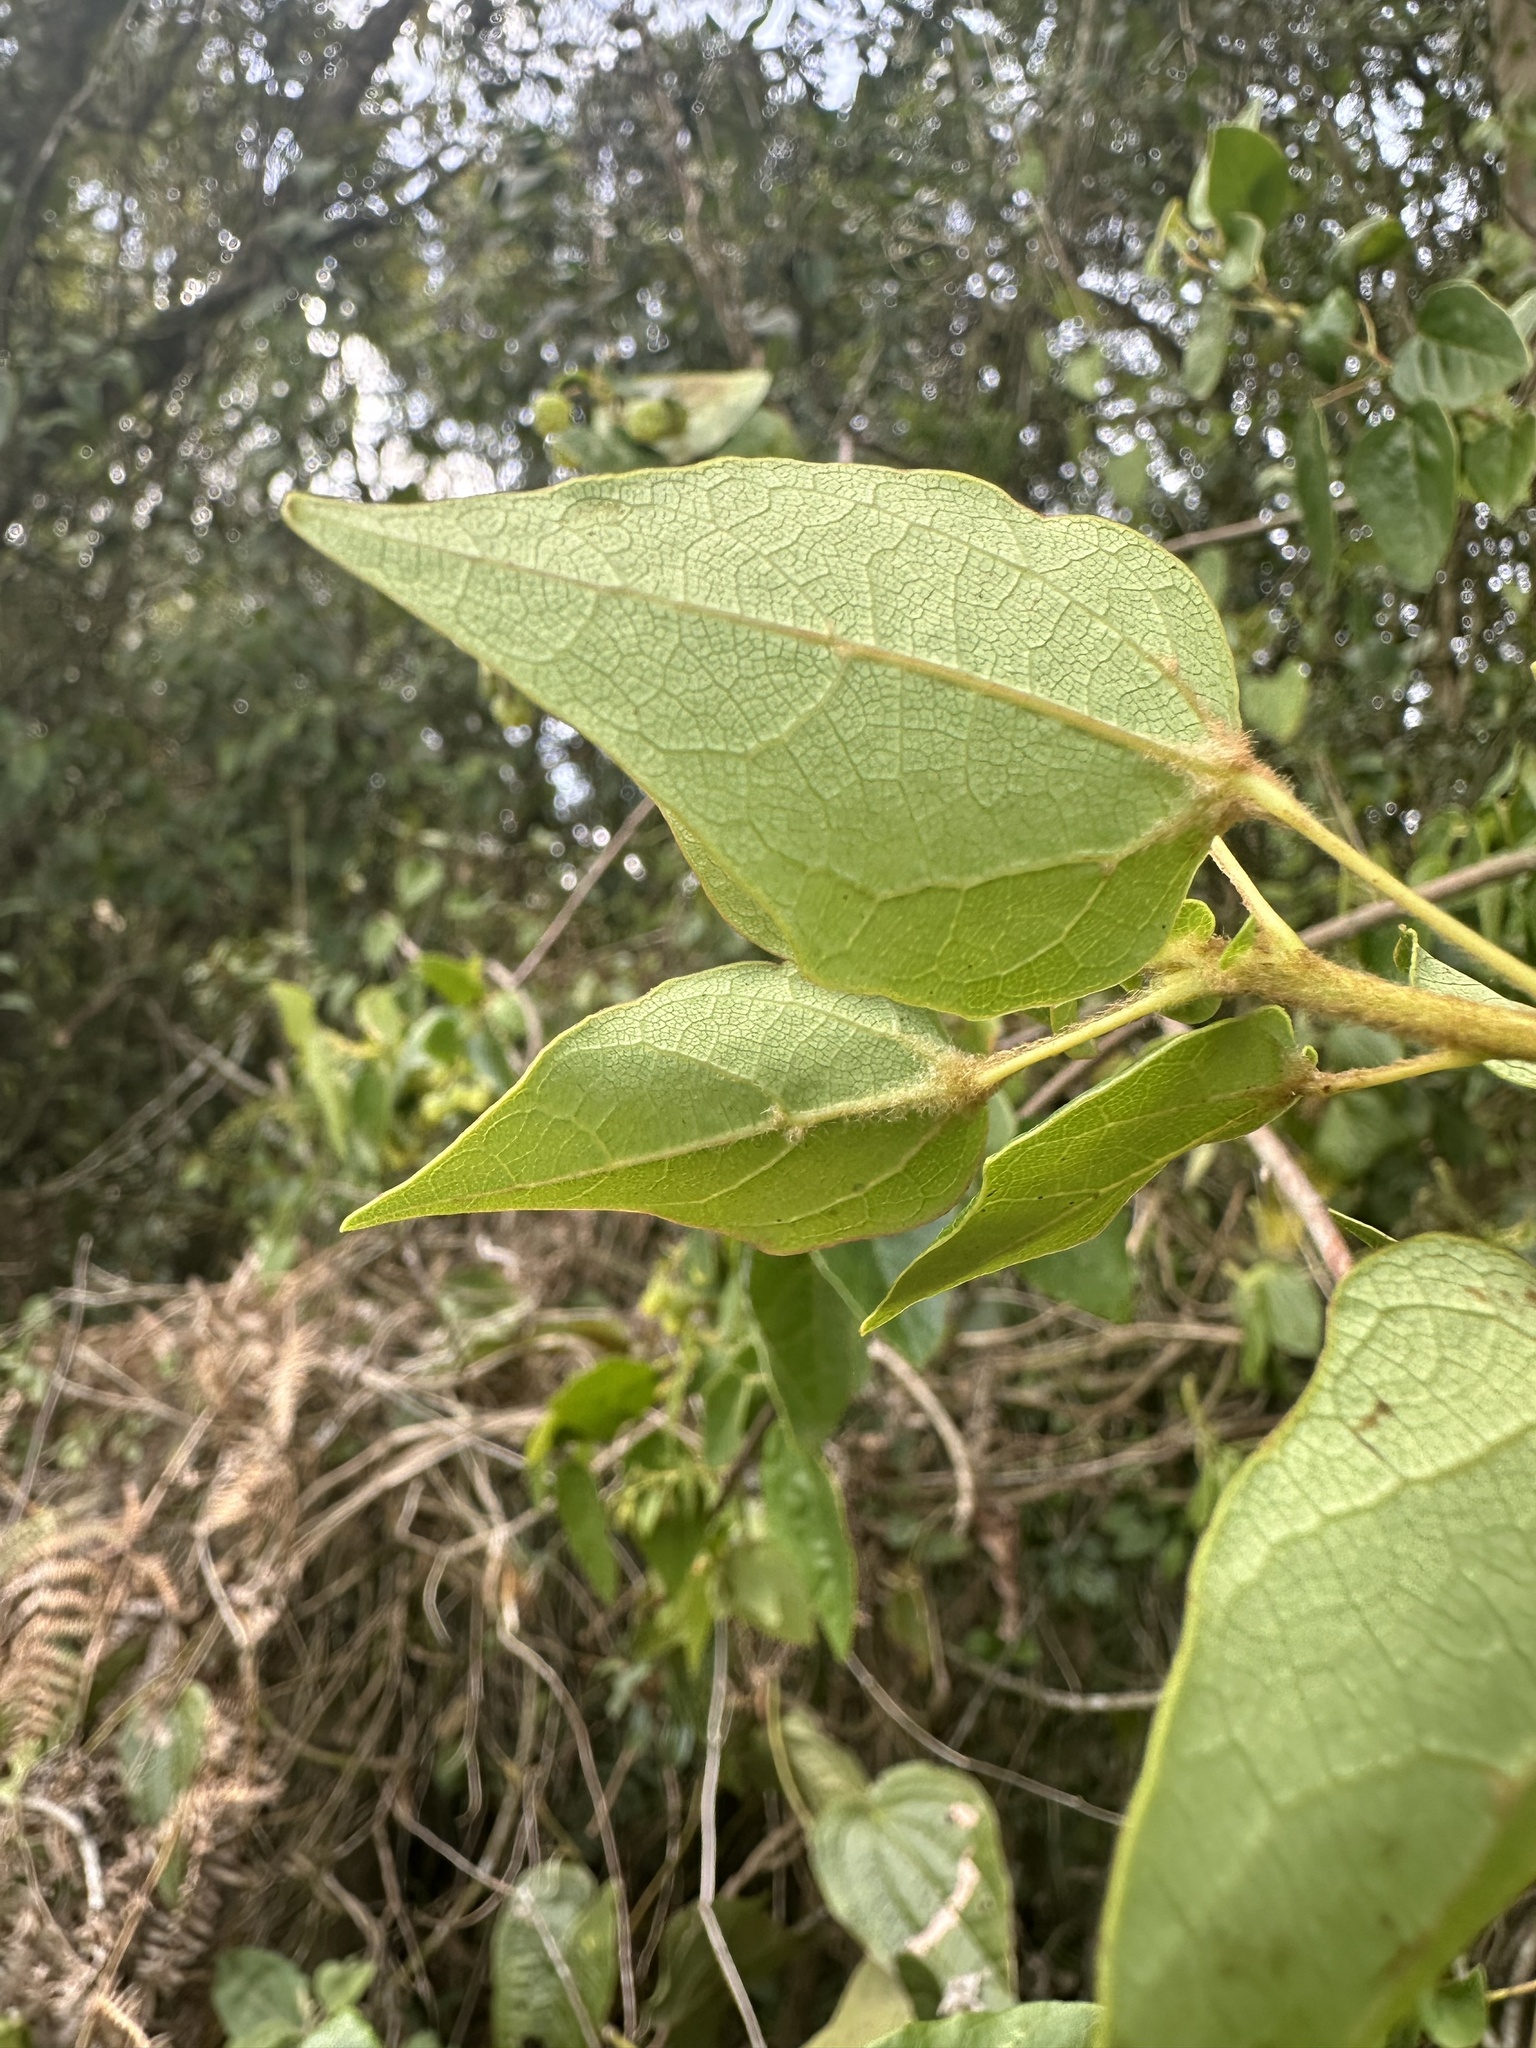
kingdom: Plantae
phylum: Tracheophyta
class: Magnoliopsida
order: Oxalidales
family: Elaeocarpaceae
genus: Vallea
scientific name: Vallea stipularis
